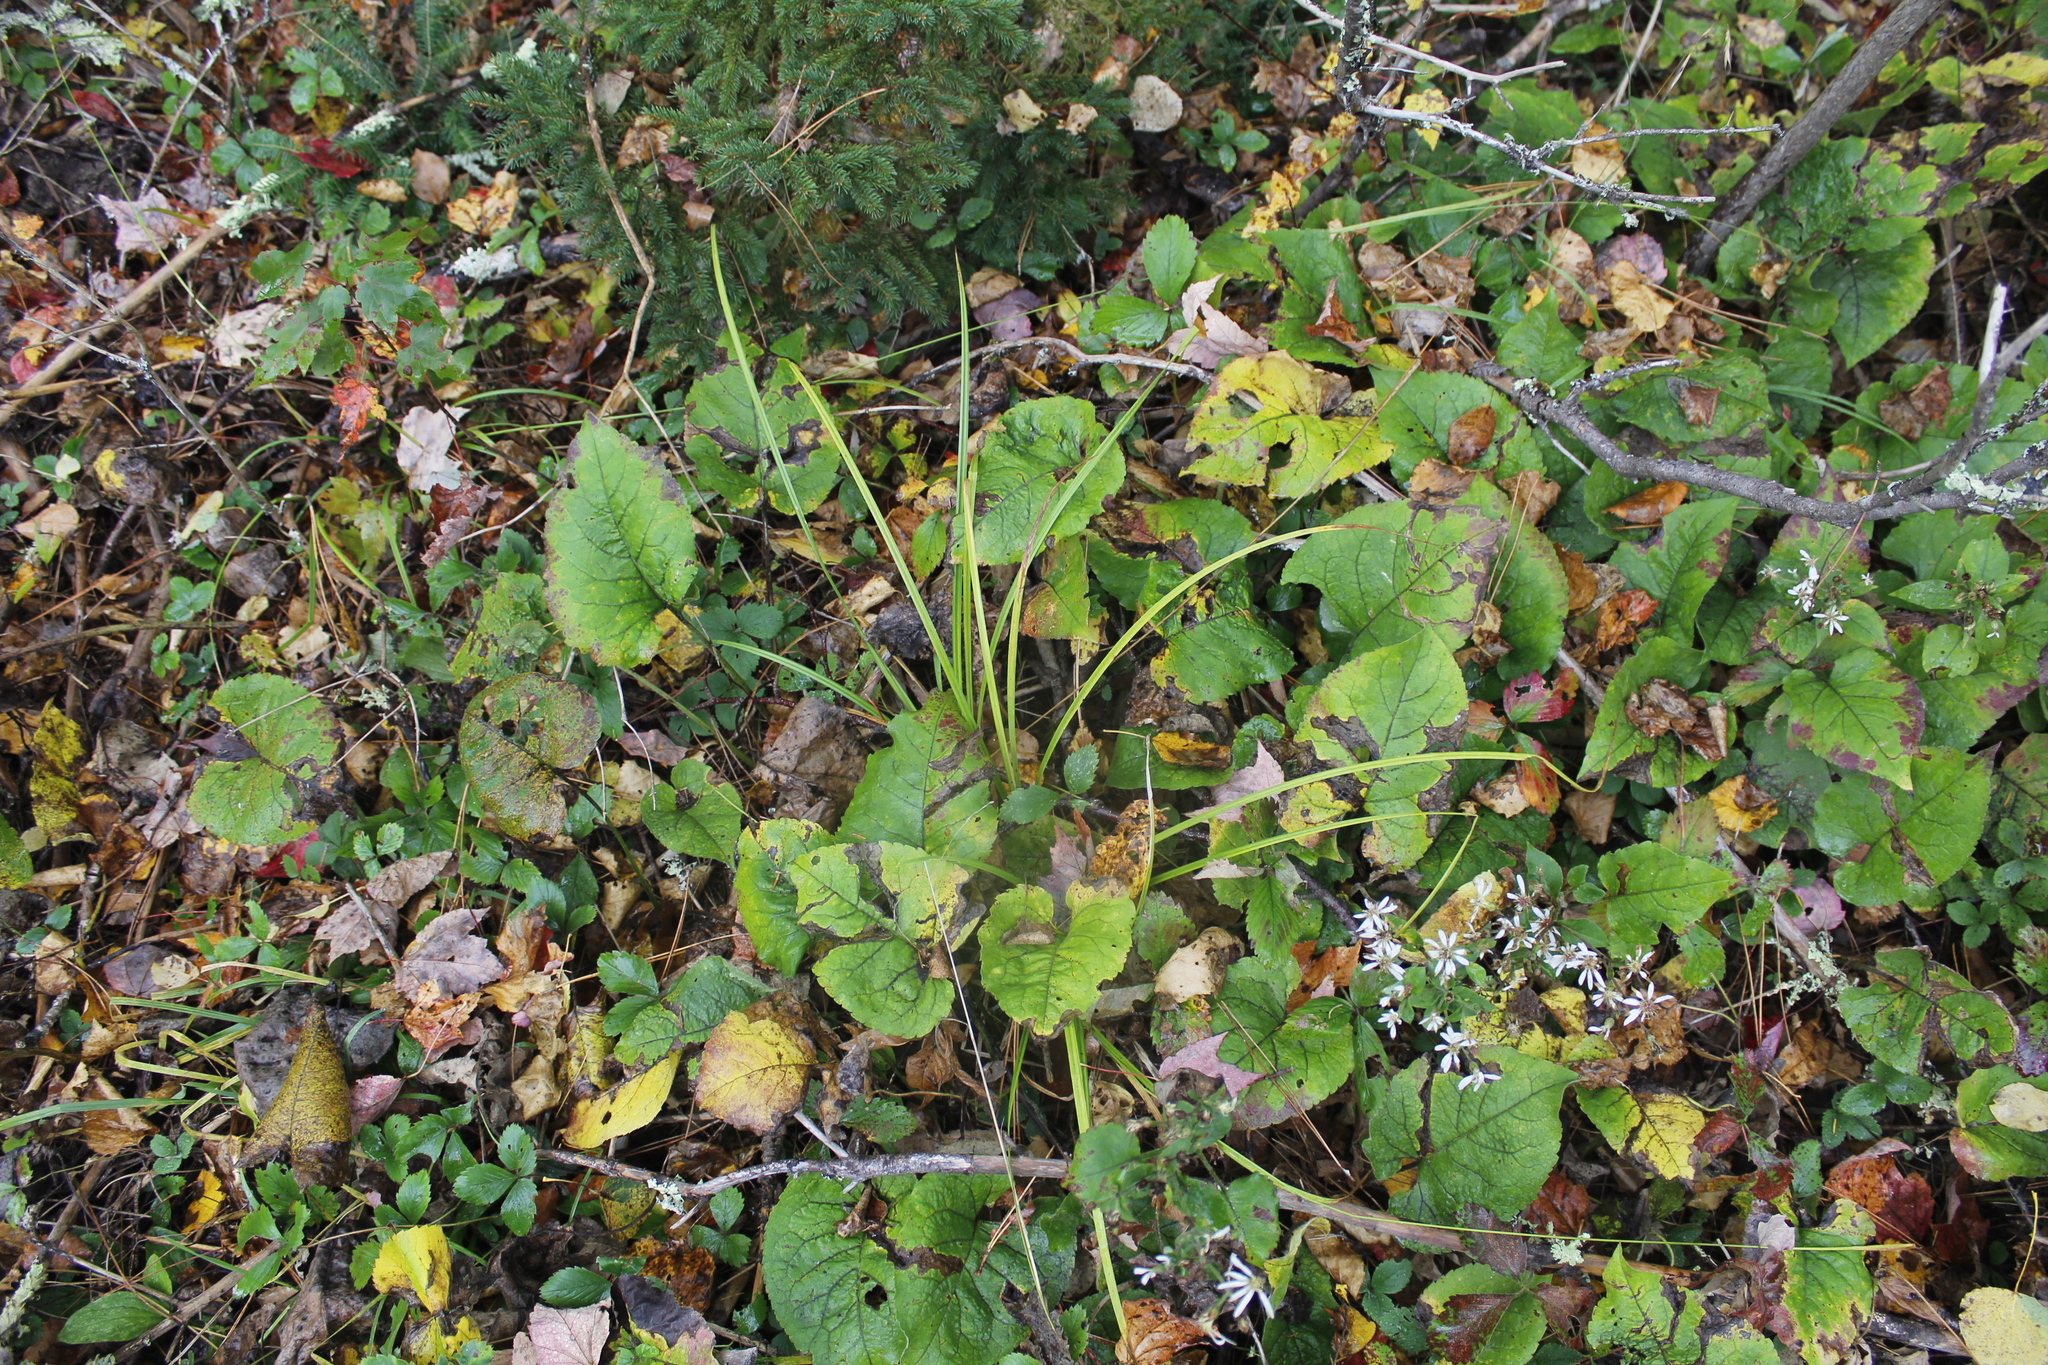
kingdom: Plantae
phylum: Tracheophyta
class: Magnoliopsida
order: Asterales
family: Asteraceae
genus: Eurybia
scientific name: Eurybia macrophylla
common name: Big-leaved aster
